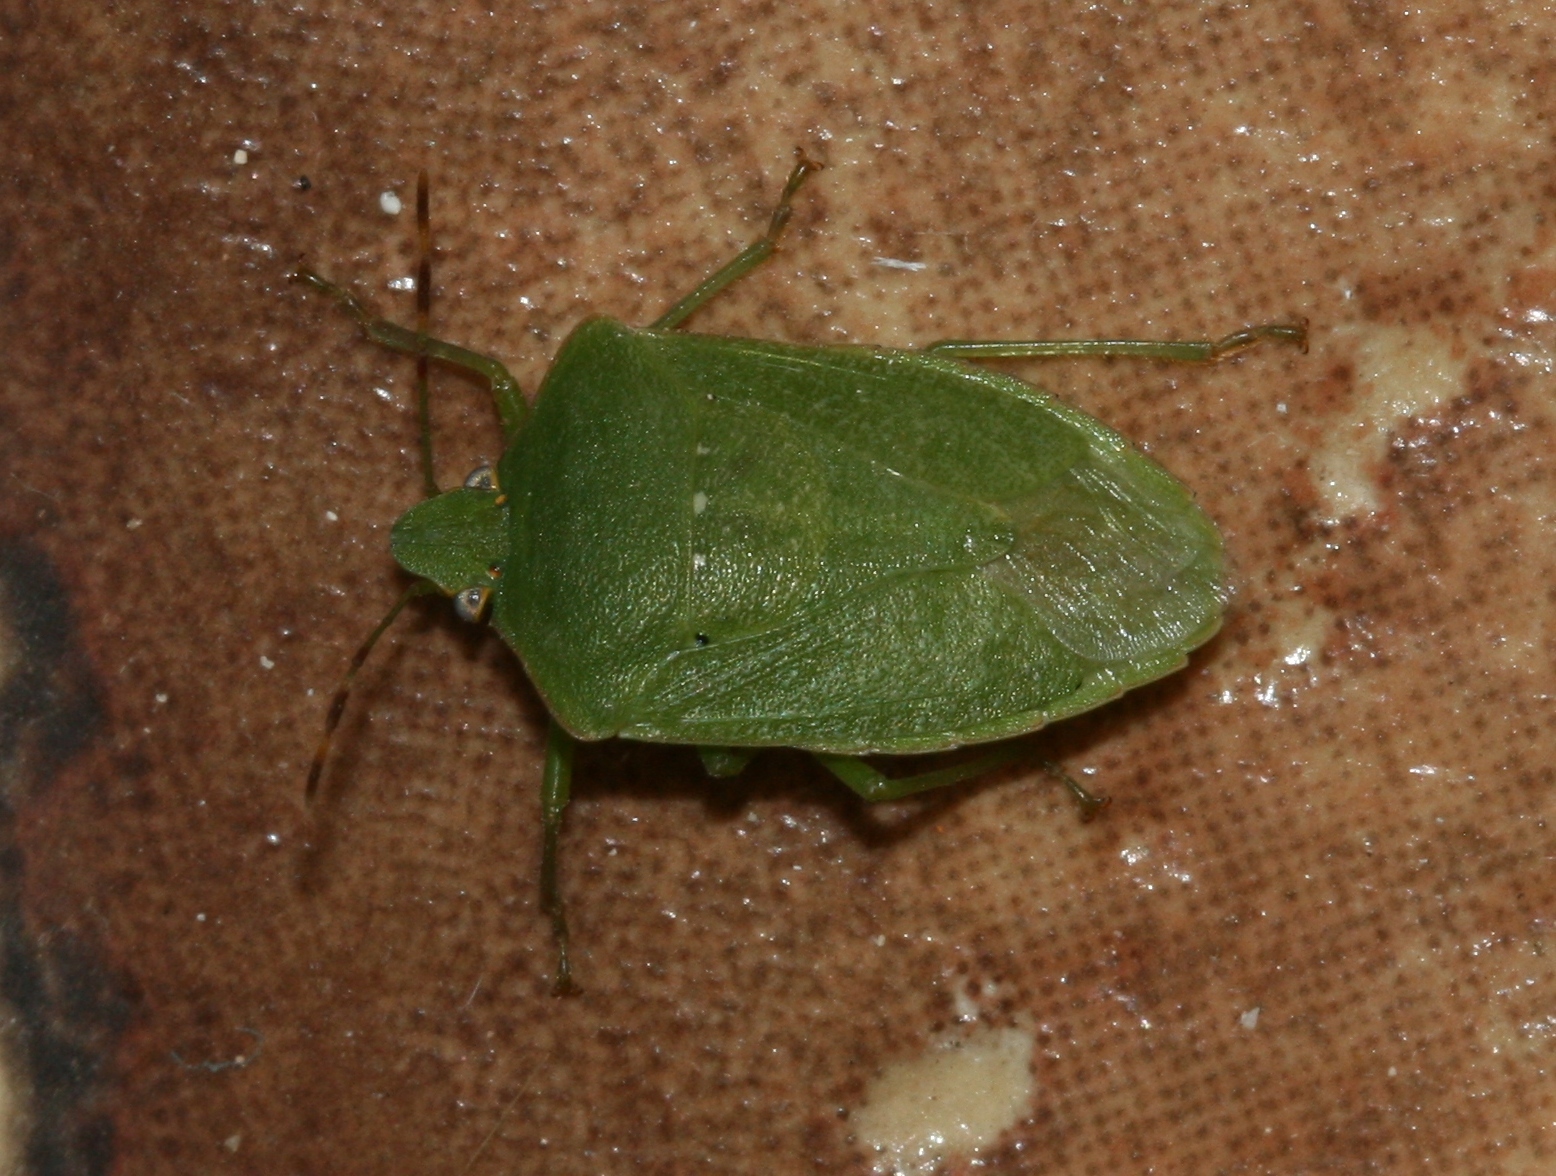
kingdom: Animalia
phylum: Arthropoda
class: Insecta
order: Hemiptera
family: Pentatomidae
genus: Nezara
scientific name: Nezara viridula
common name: Southern green stink bug
